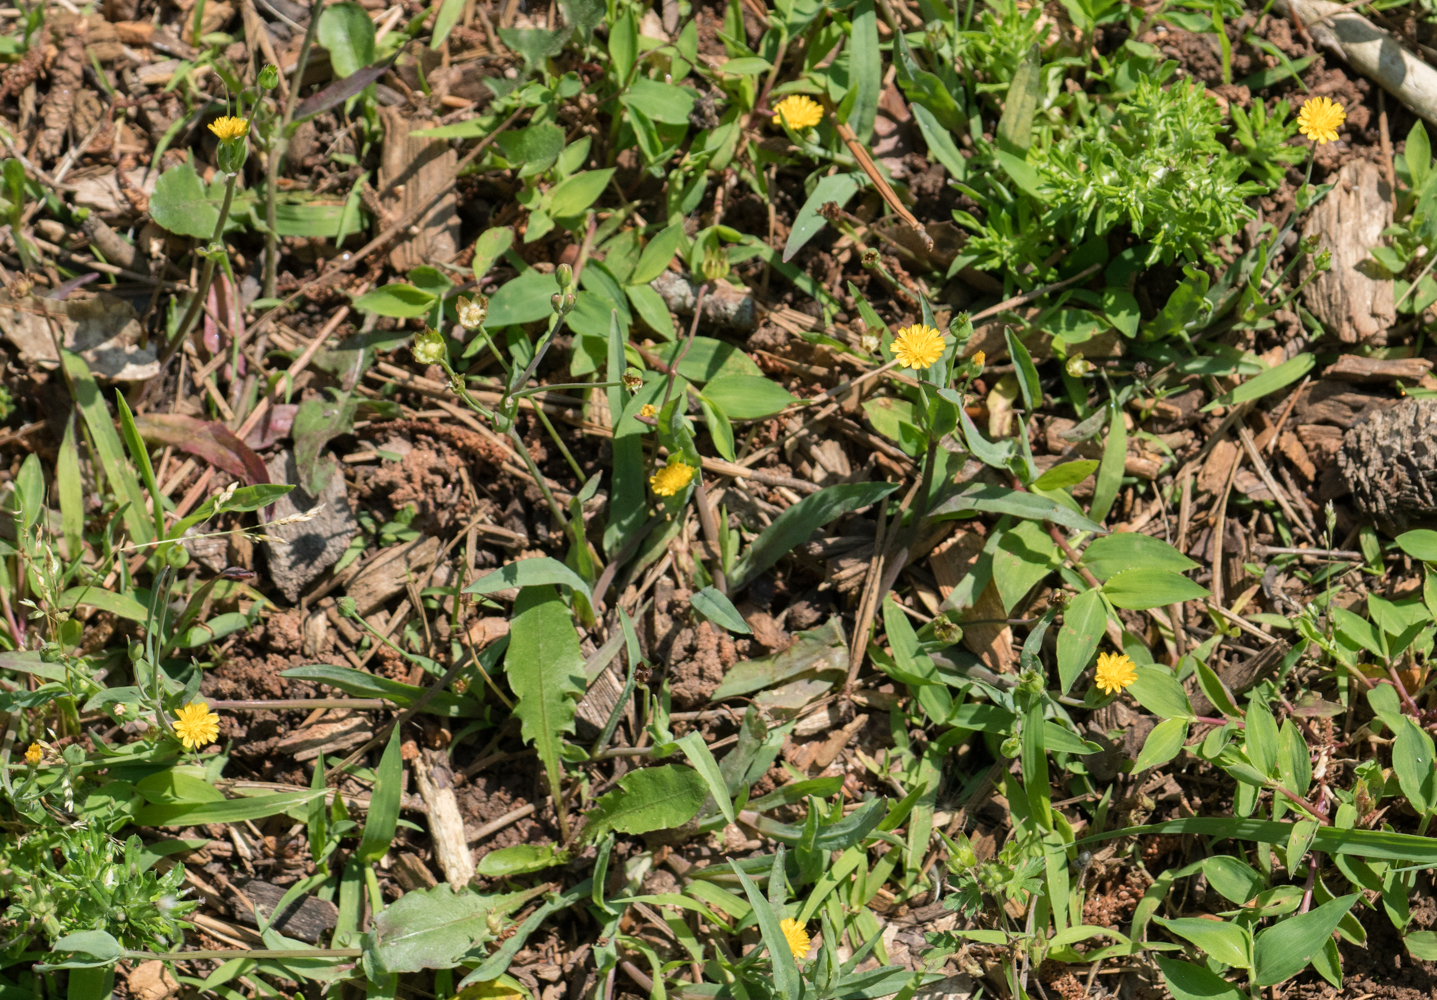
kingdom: Plantae
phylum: Tracheophyta
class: Magnoliopsida
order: Asterales
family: Asteraceae
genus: Krigia
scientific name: Krigia cespitosa
